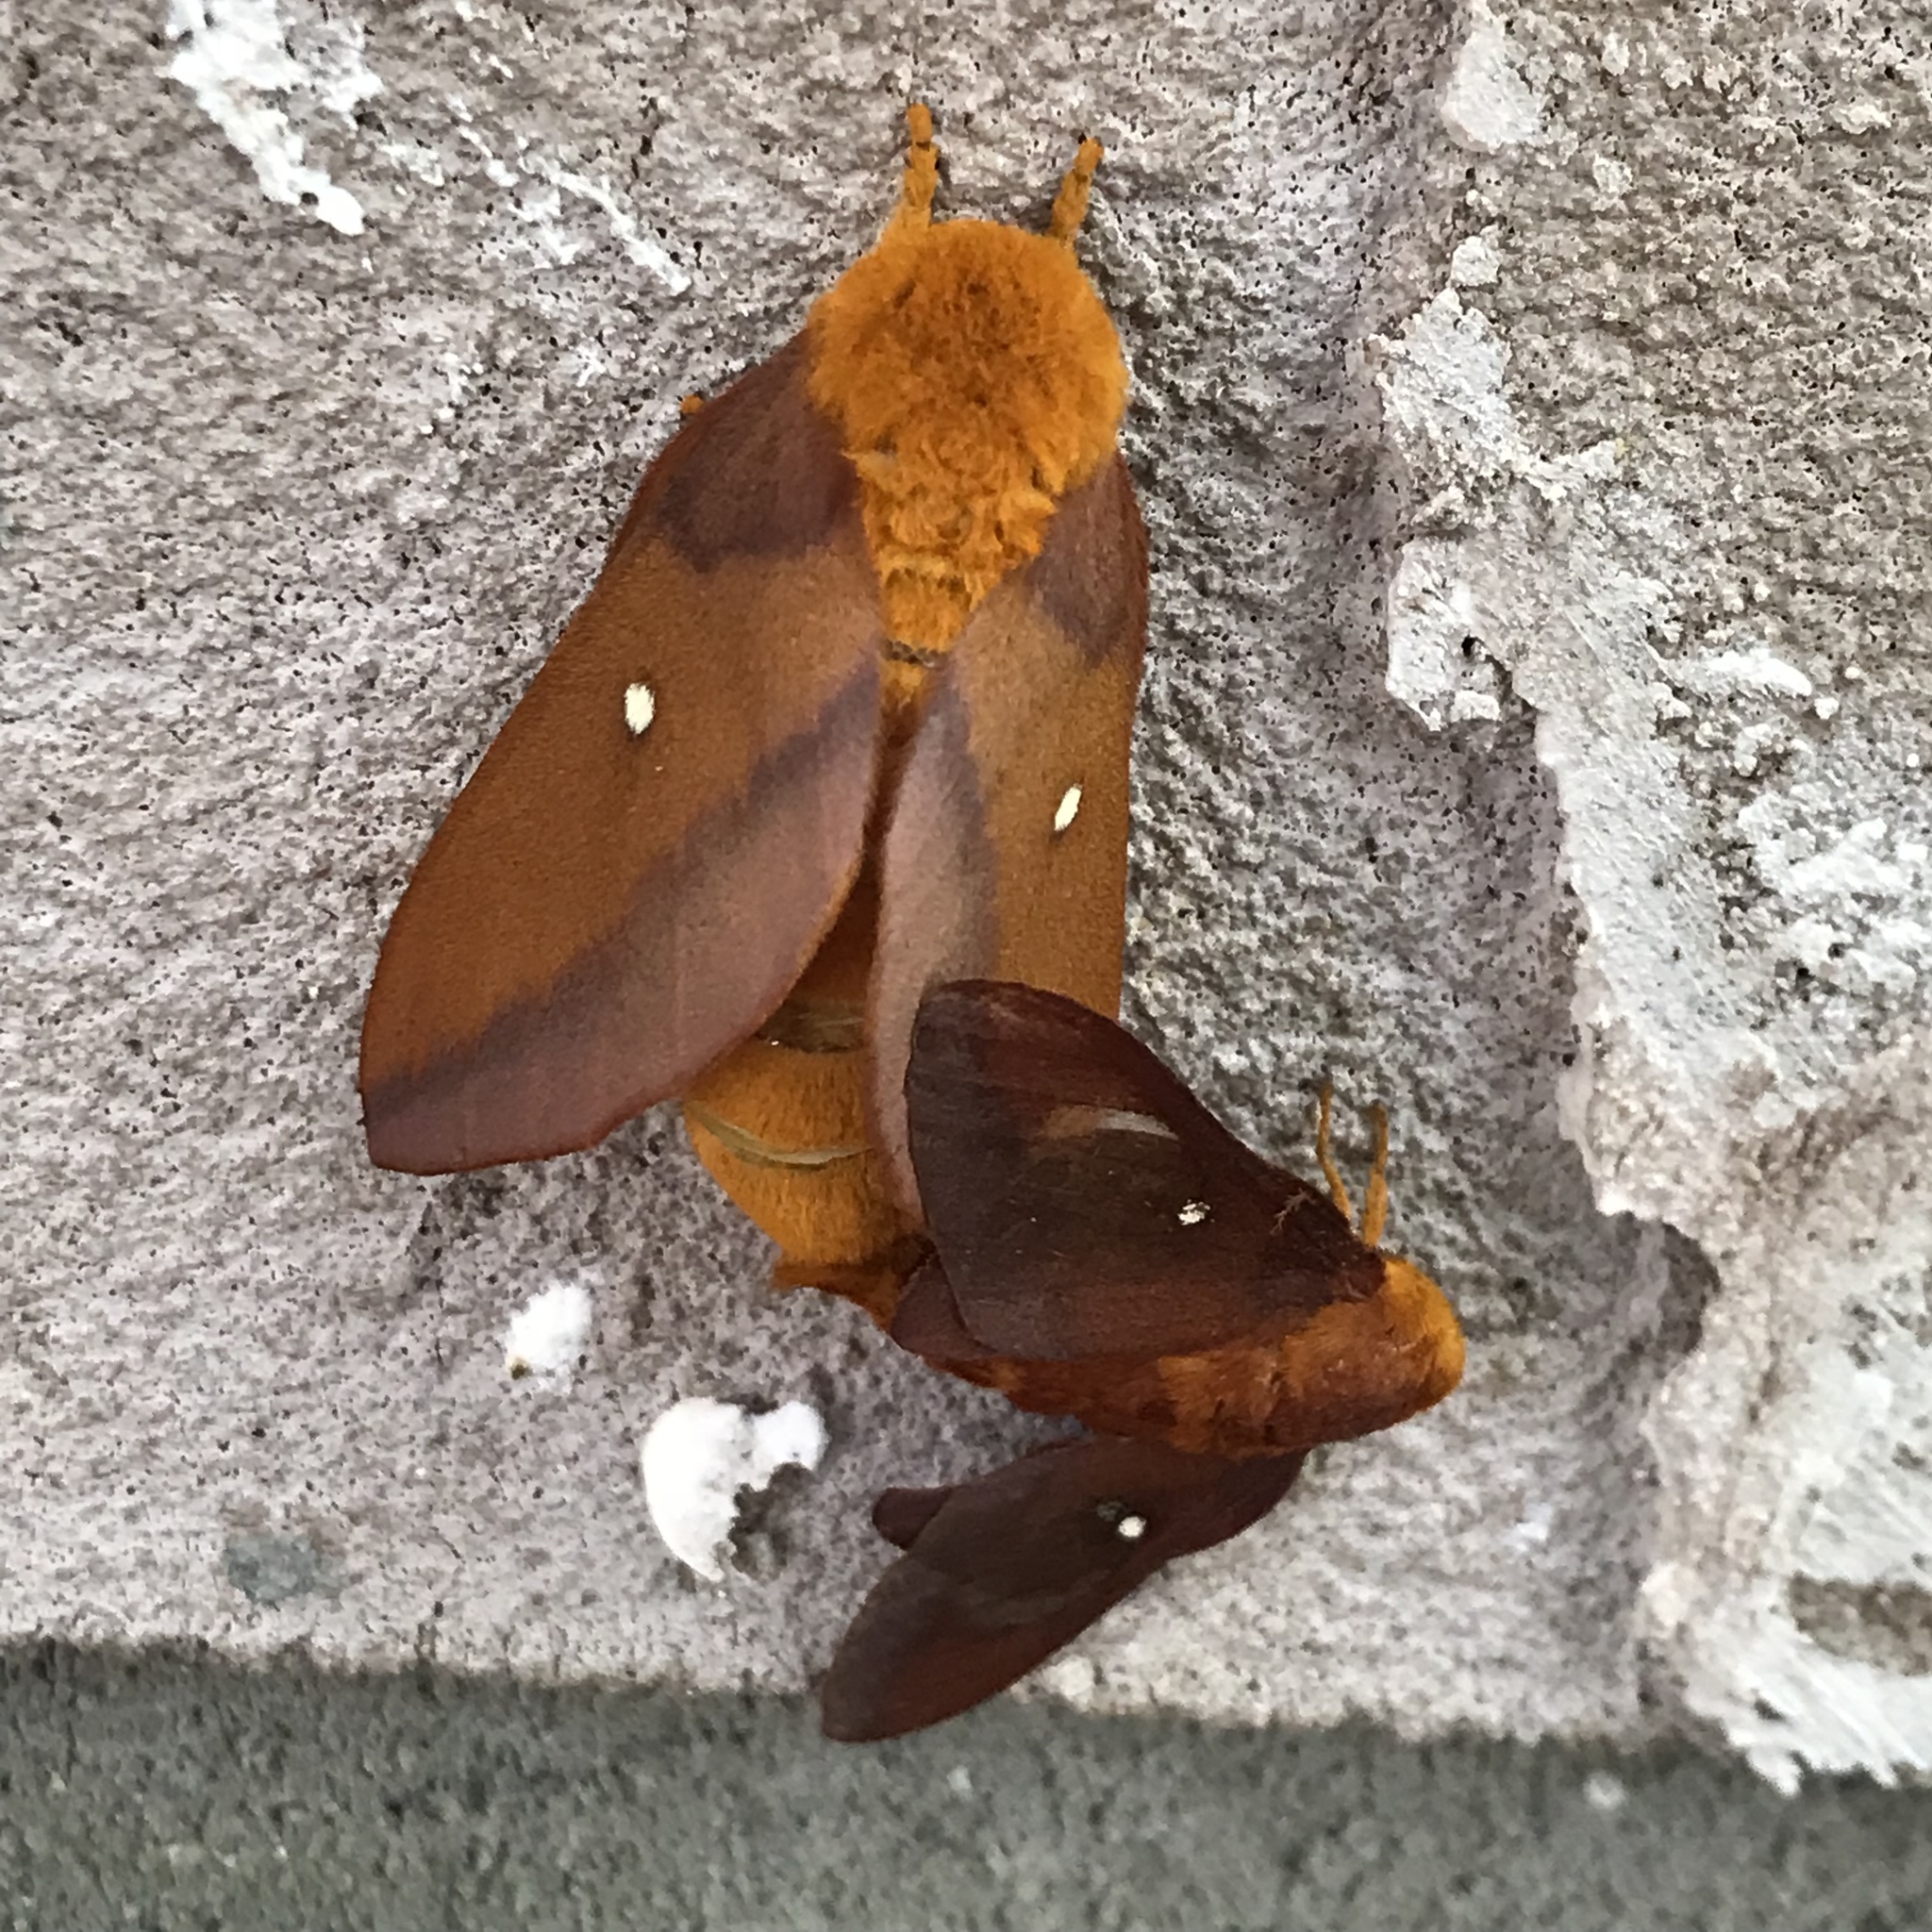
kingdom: Animalia
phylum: Arthropoda
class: Insecta
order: Lepidoptera
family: Saturniidae
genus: Anisota
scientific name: Anisota virginiensis
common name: Pink striped oakworm moth
